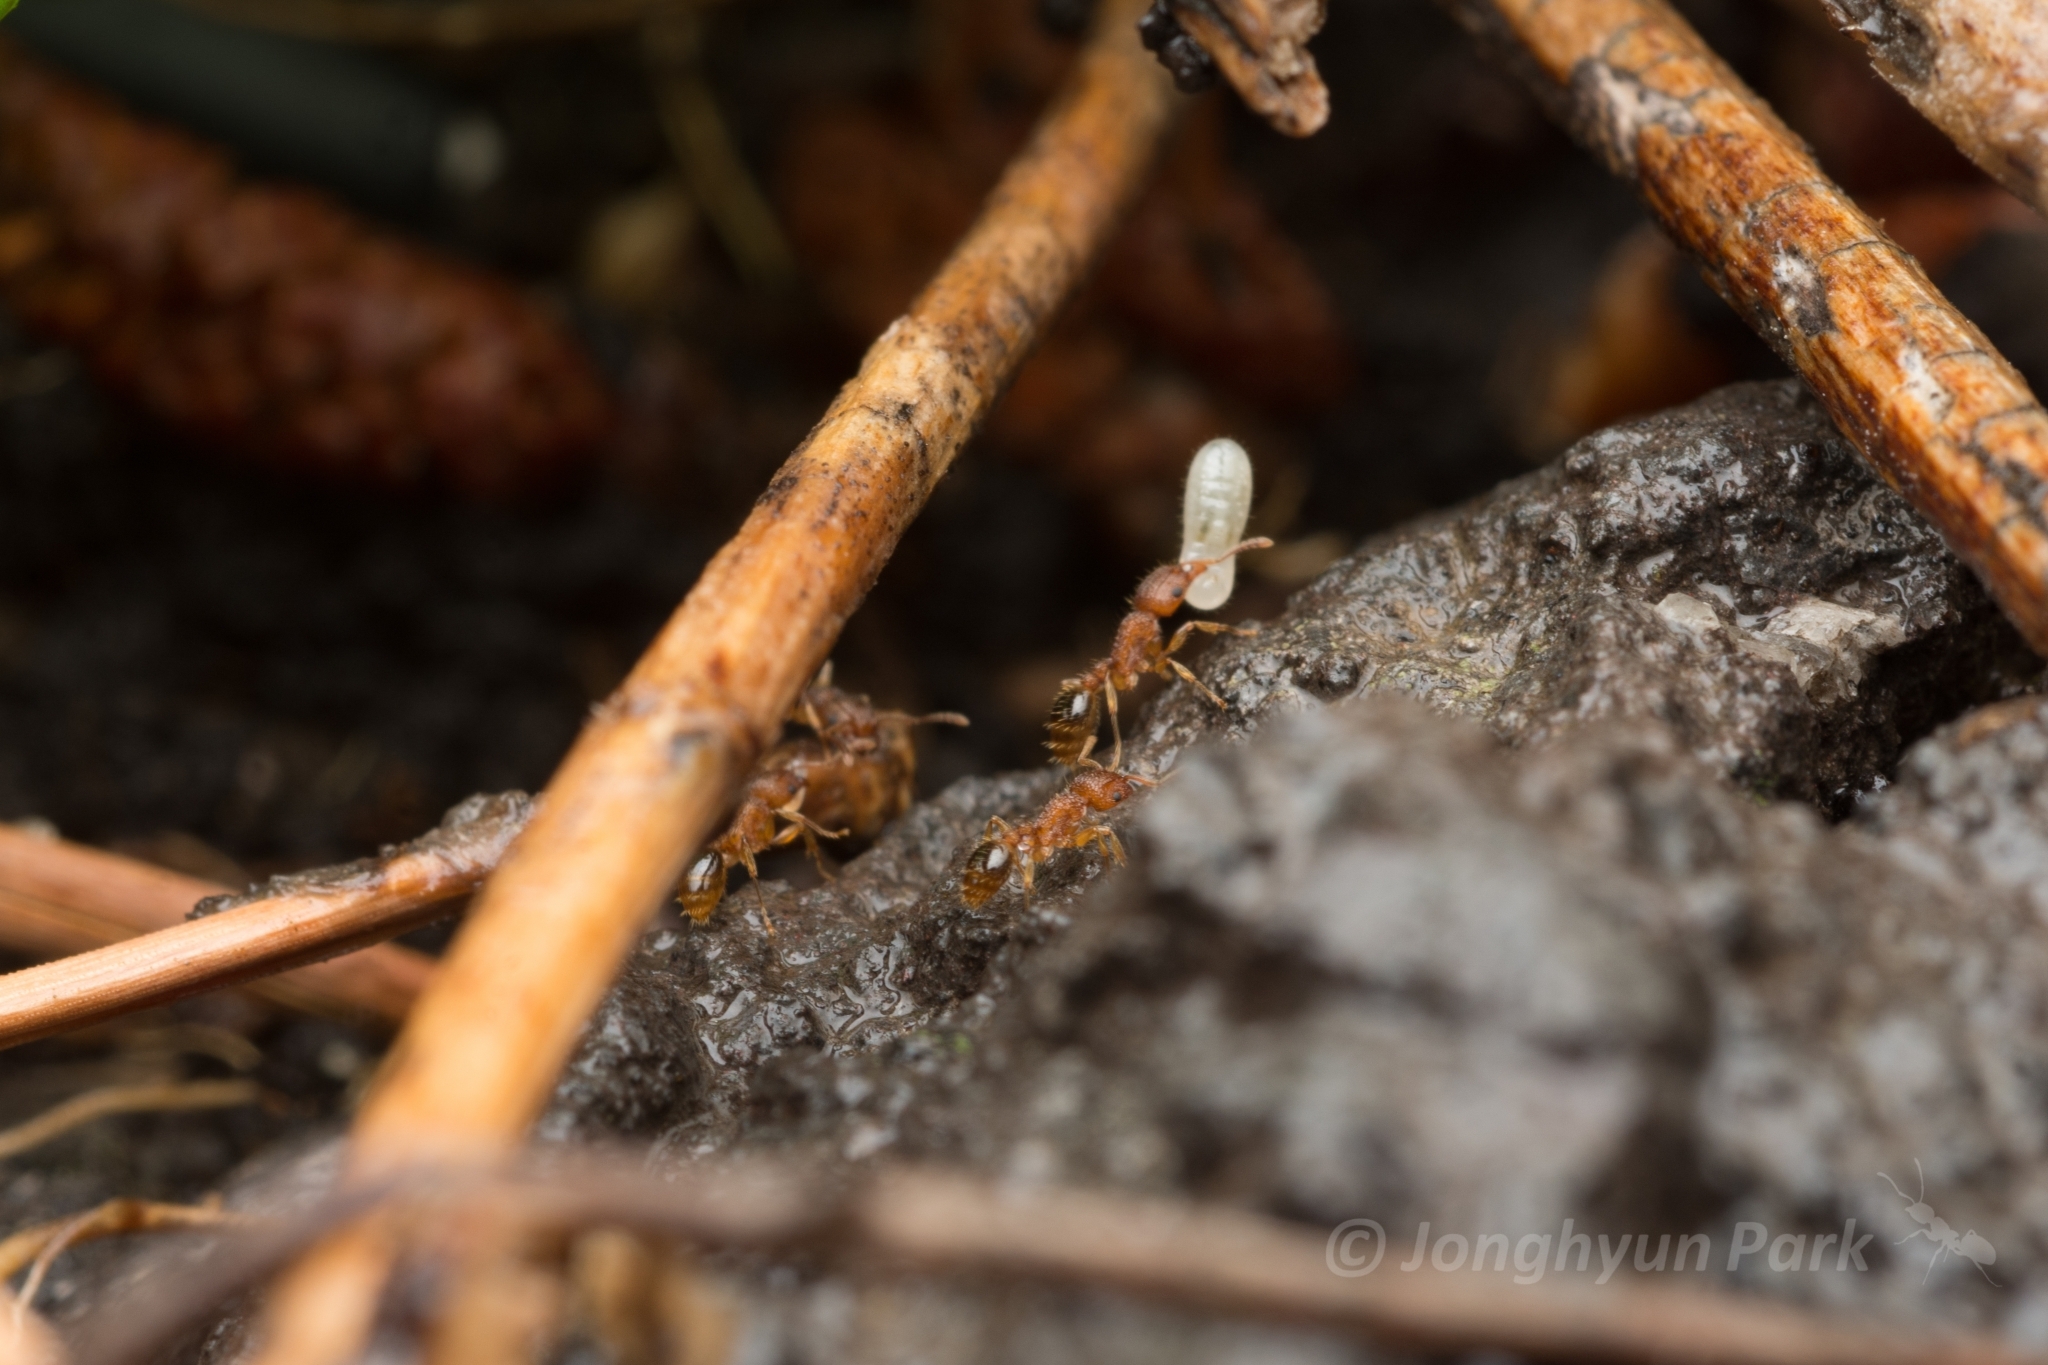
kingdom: Animalia
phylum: Arthropoda
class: Insecta
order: Hymenoptera
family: Formicidae
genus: Tetramorium
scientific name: Tetramorium bicarinatum
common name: Guinea ant
